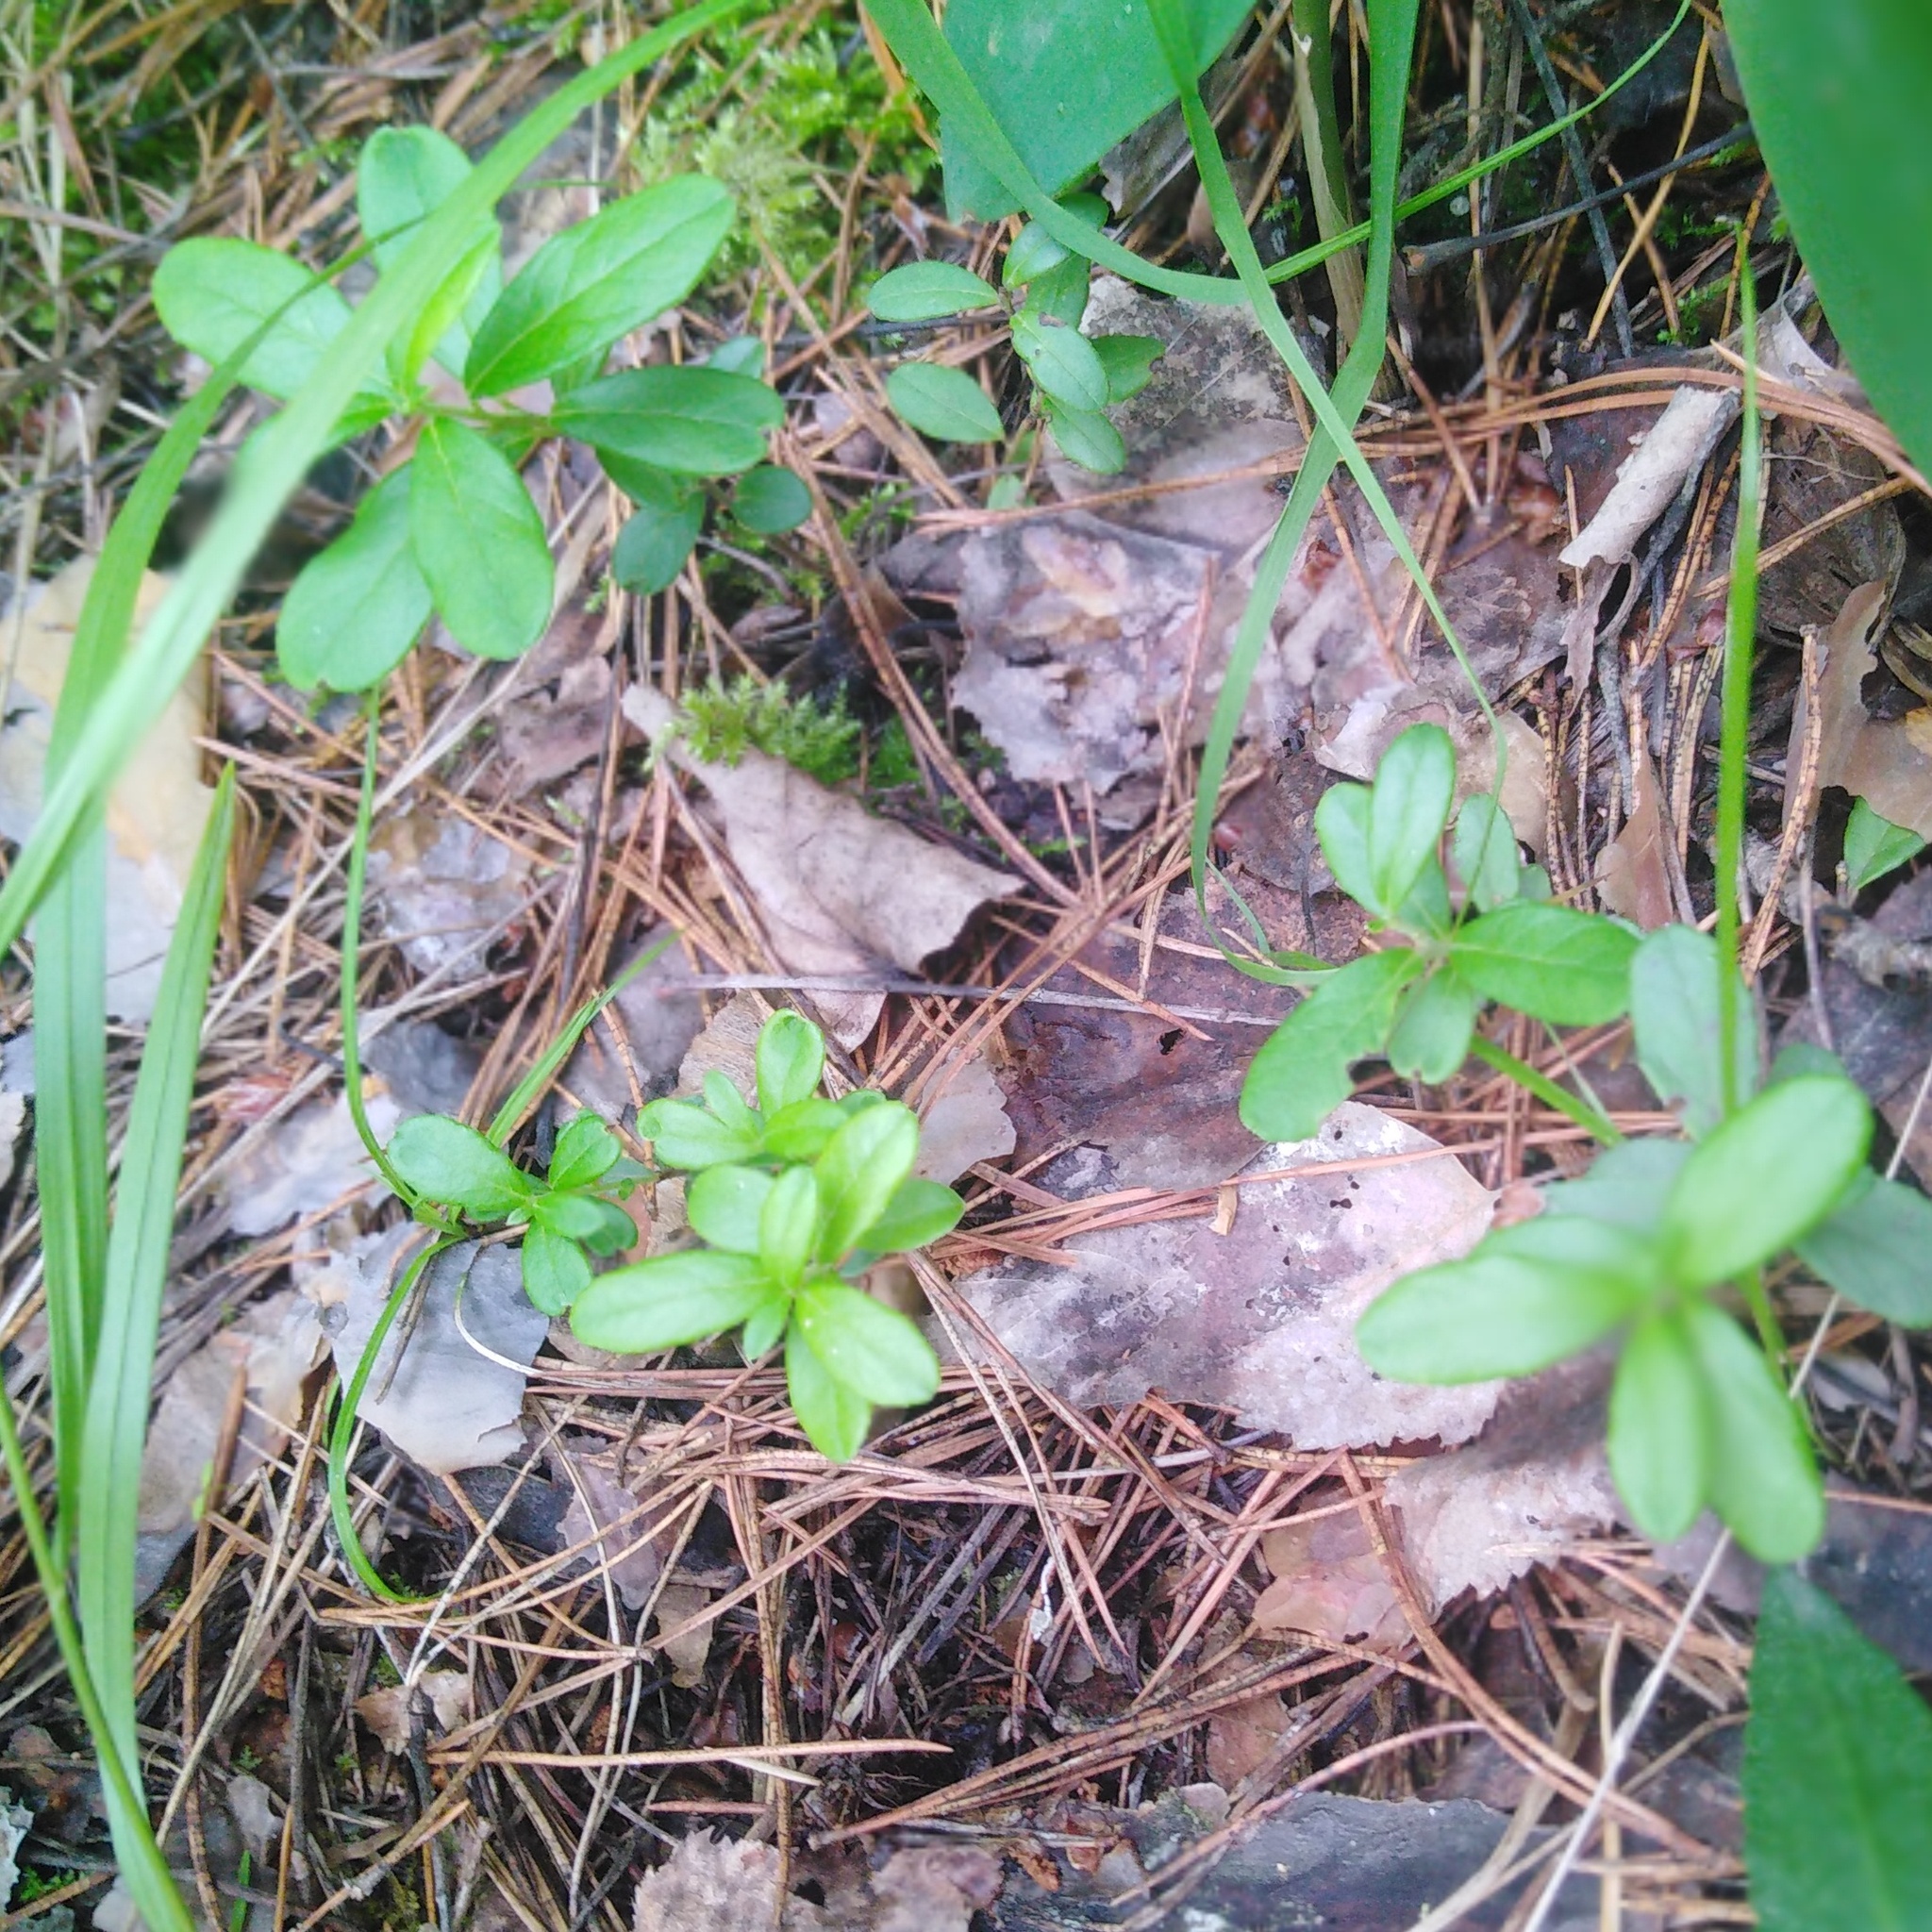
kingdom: Plantae
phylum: Tracheophyta
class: Magnoliopsida
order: Ericales
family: Ericaceae
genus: Vaccinium
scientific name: Vaccinium vitis-idaea
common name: Cowberry
